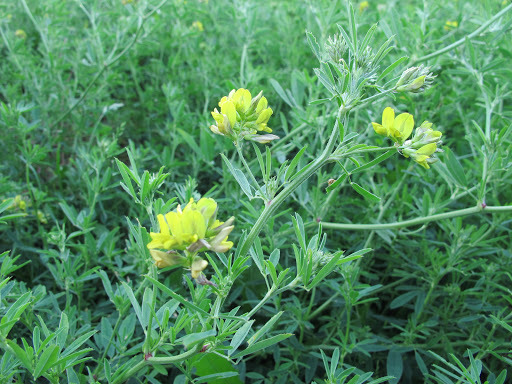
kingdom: Plantae
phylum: Tracheophyta
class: Magnoliopsida
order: Fabales
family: Fabaceae
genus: Medicago
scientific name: Medicago falcata
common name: Sickle medick
